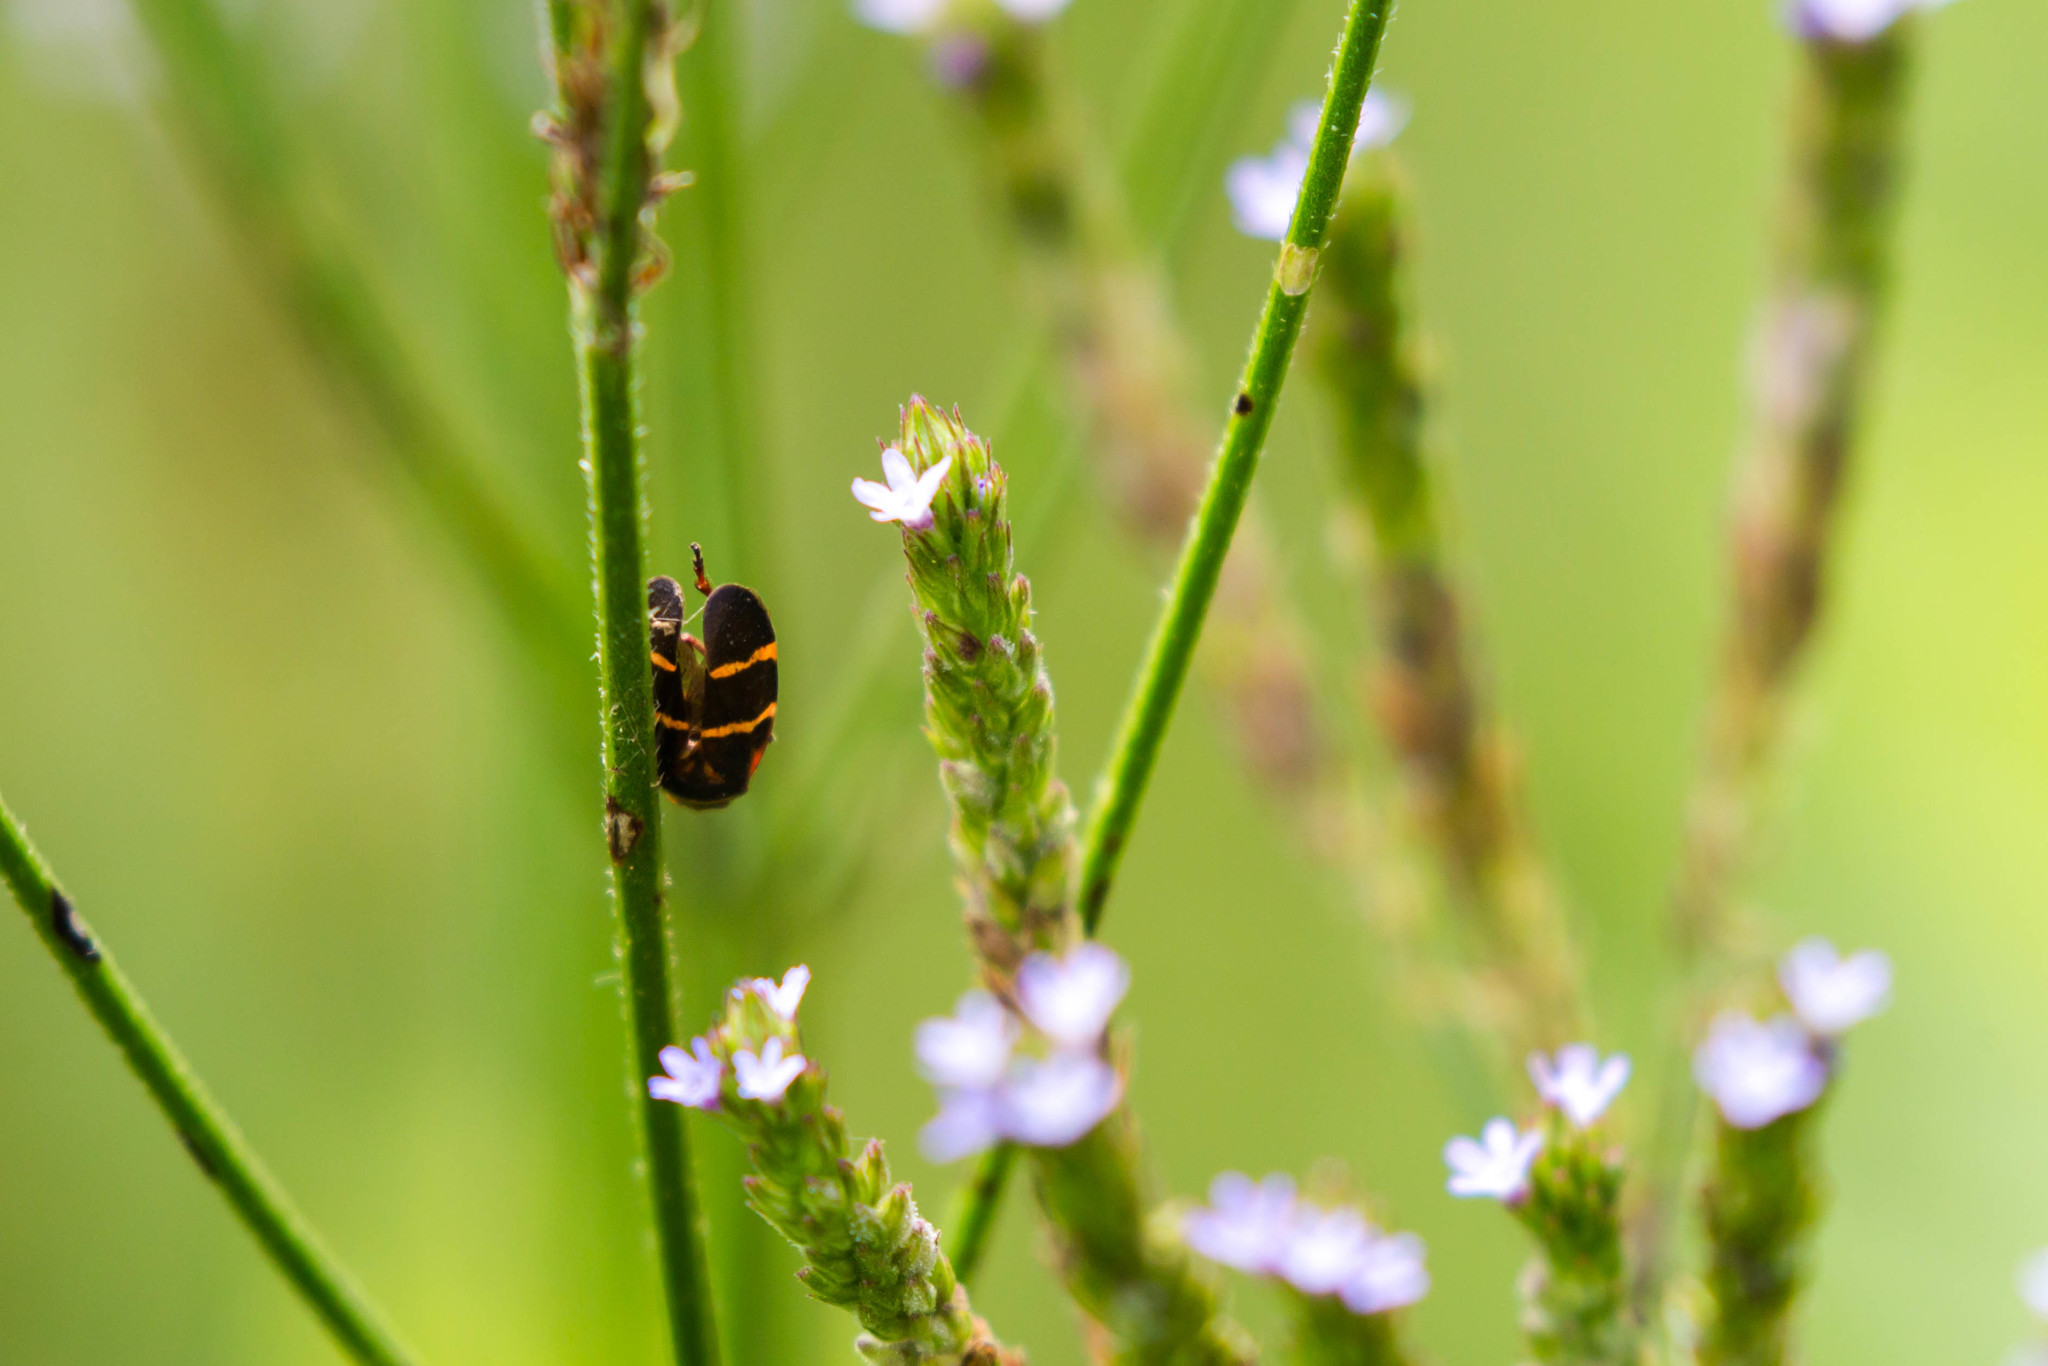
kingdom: Animalia
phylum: Arthropoda
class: Insecta
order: Hemiptera
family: Cercopidae
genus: Prosapia
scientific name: Prosapia bicincta
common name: Twolined spittlebug
